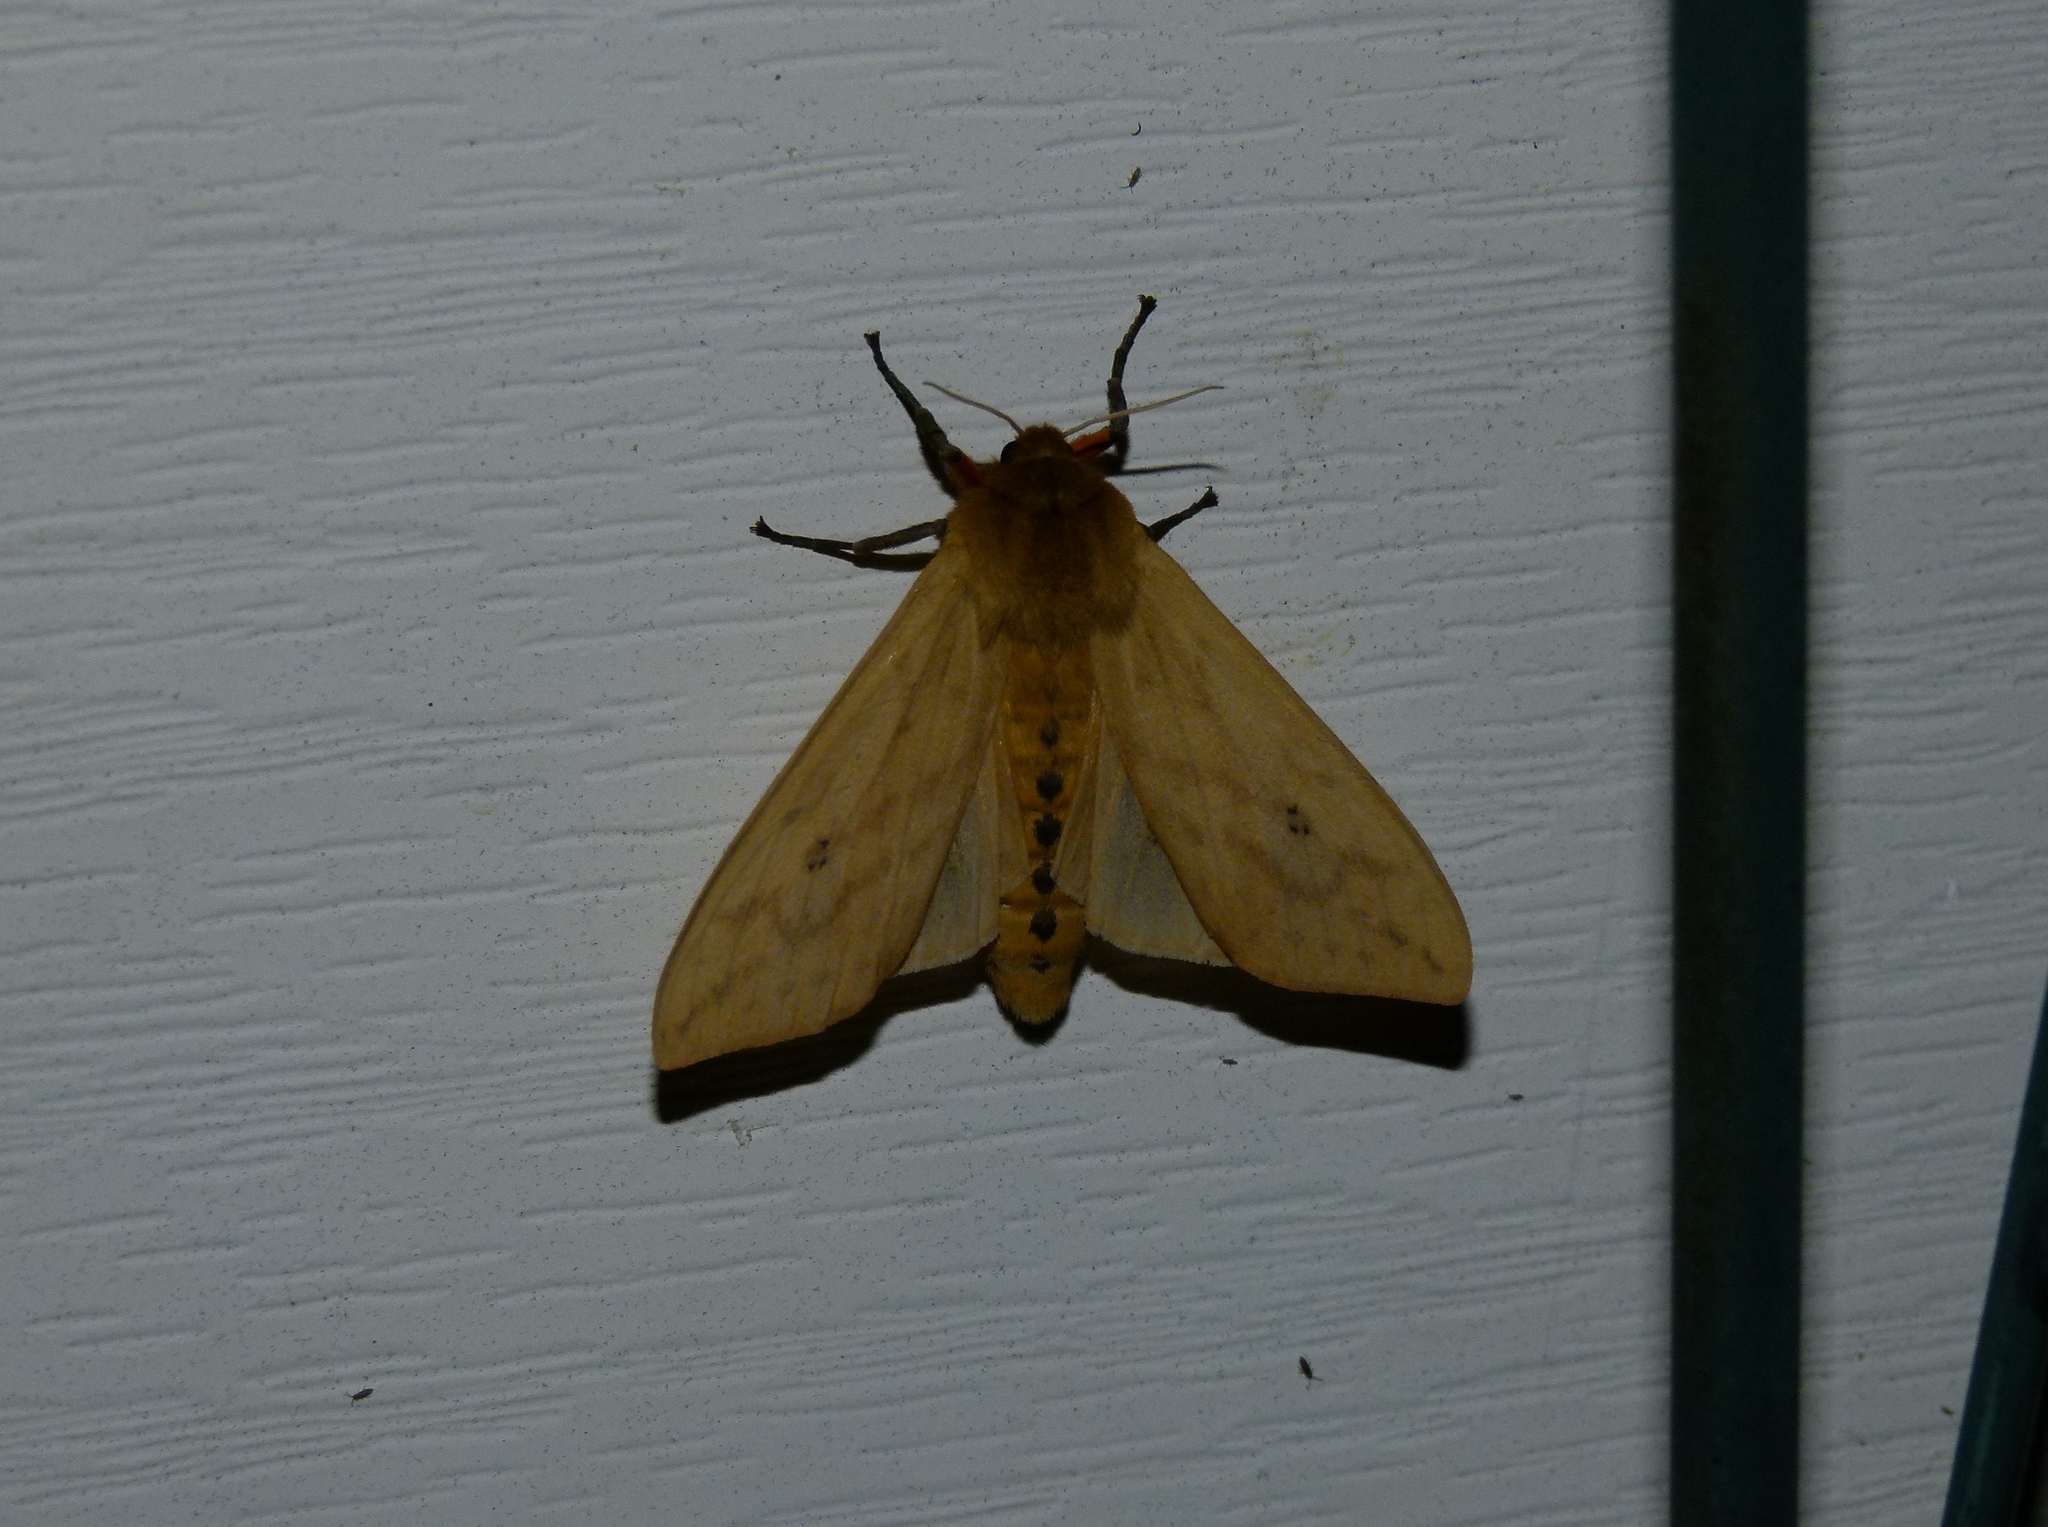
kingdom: Animalia
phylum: Arthropoda
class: Insecta
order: Lepidoptera
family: Erebidae
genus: Pyrrharctia
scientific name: Pyrrharctia isabella
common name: Isabella tiger moth
